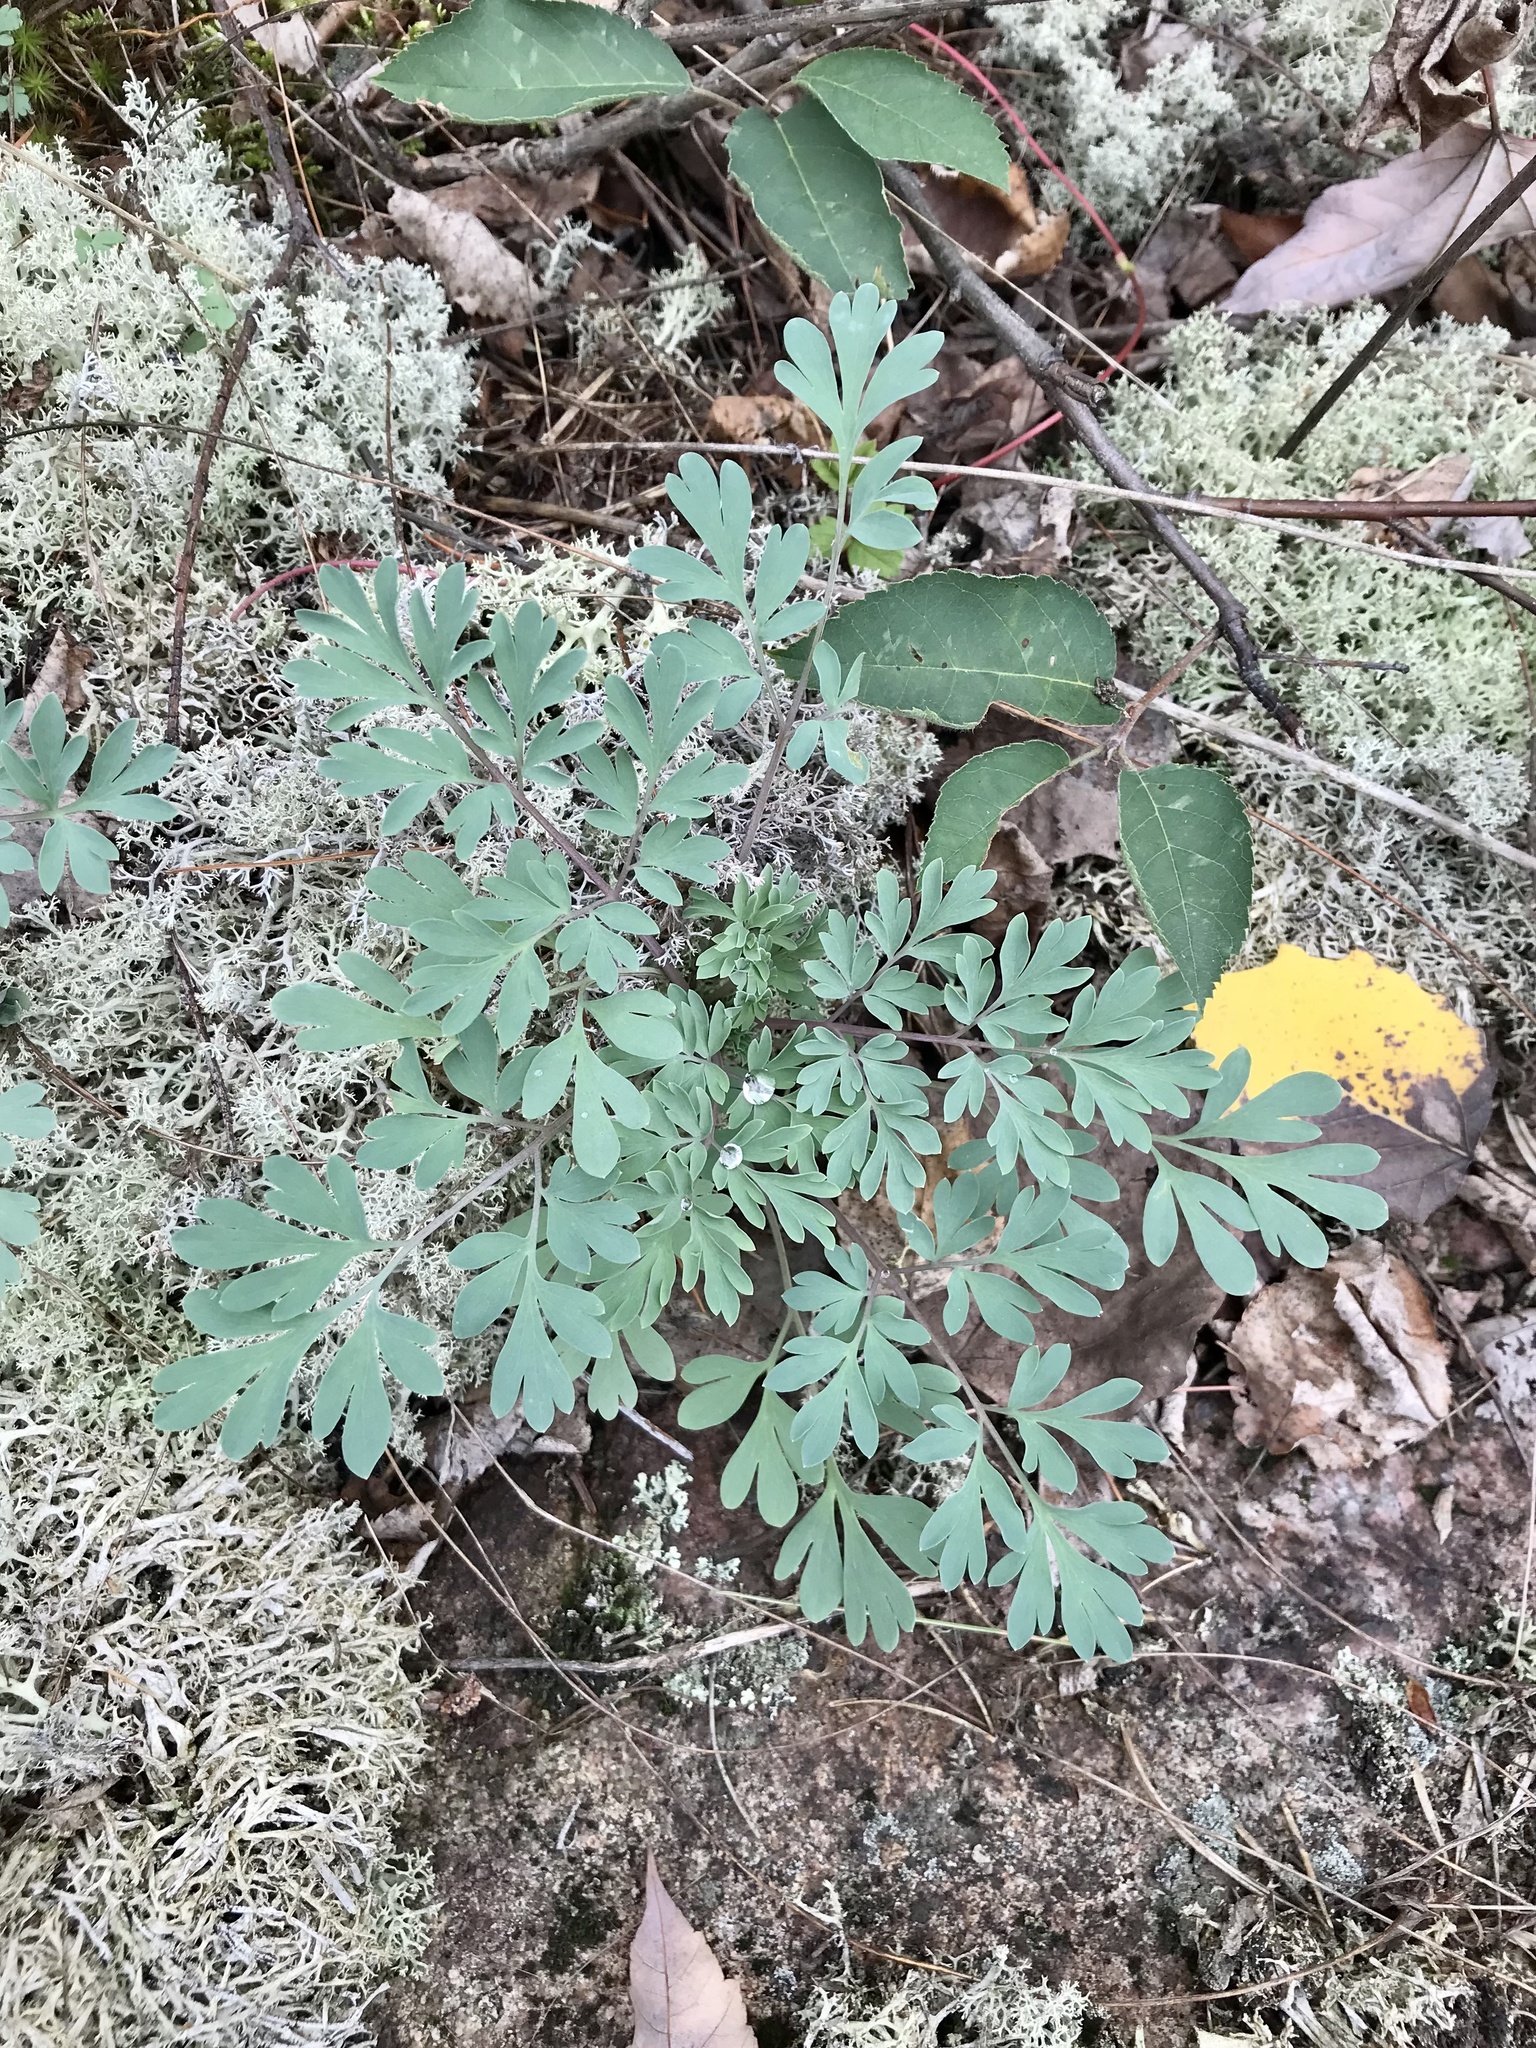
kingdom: Plantae
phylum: Tracheophyta
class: Magnoliopsida
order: Ranunculales
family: Papaveraceae
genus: Capnoides
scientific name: Capnoides sempervirens
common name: Rock harlequin
